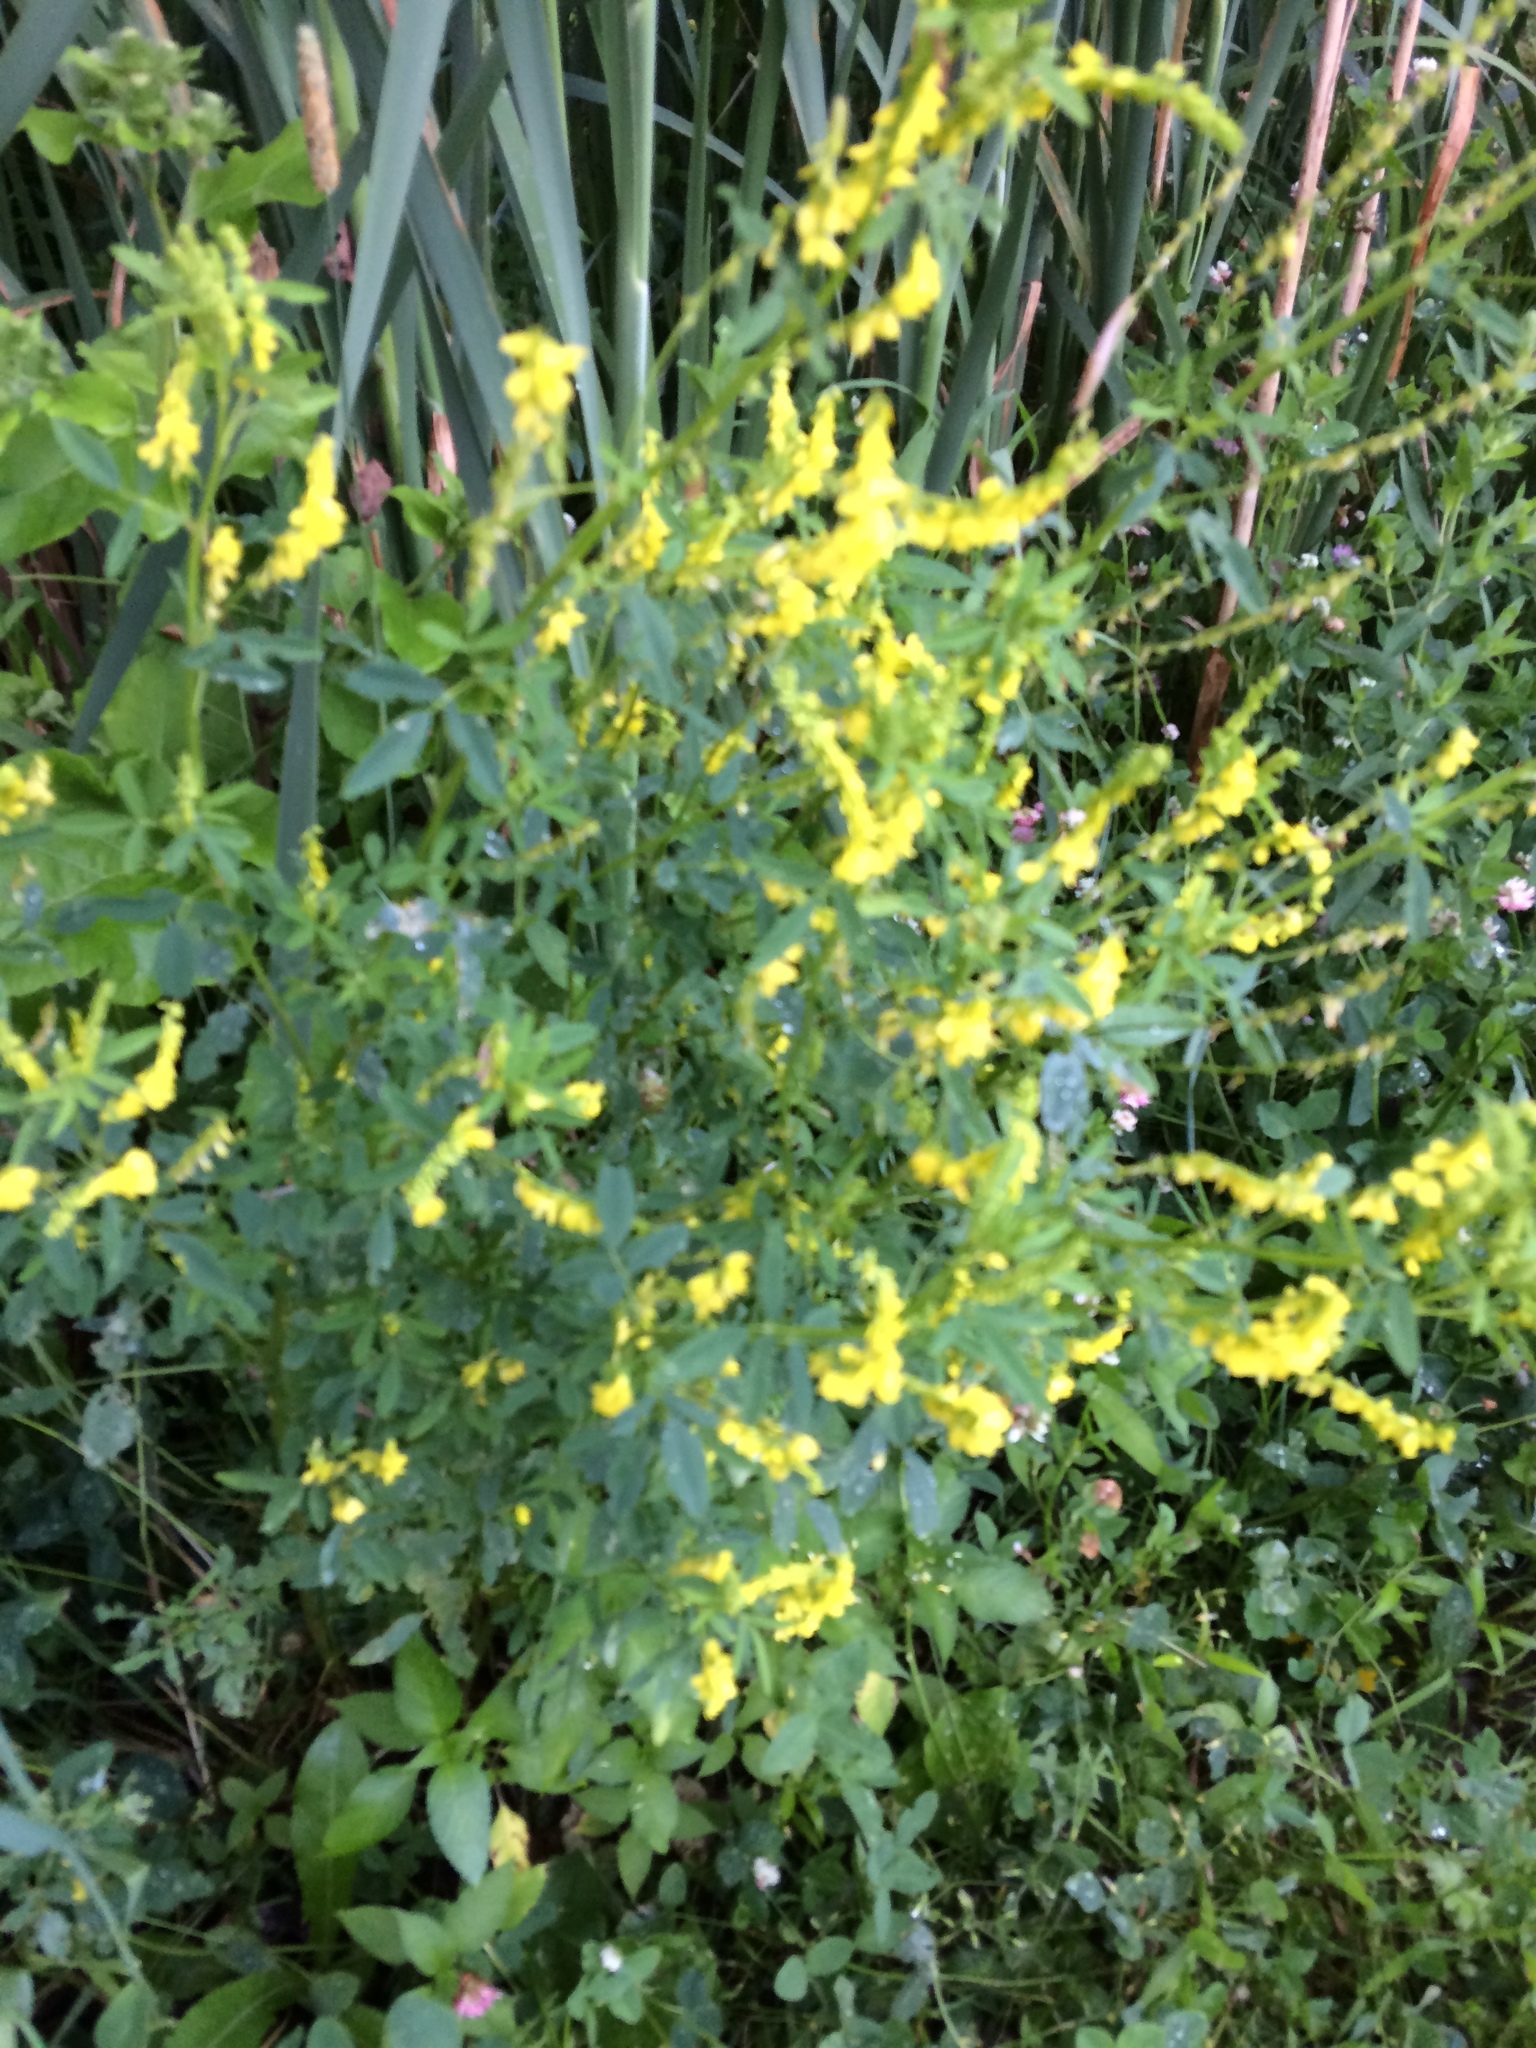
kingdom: Plantae
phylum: Tracheophyta
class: Magnoliopsida
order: Fabales
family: Fabaceae
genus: Melilotus
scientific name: Melilotus officinalis
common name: Sweetclover
